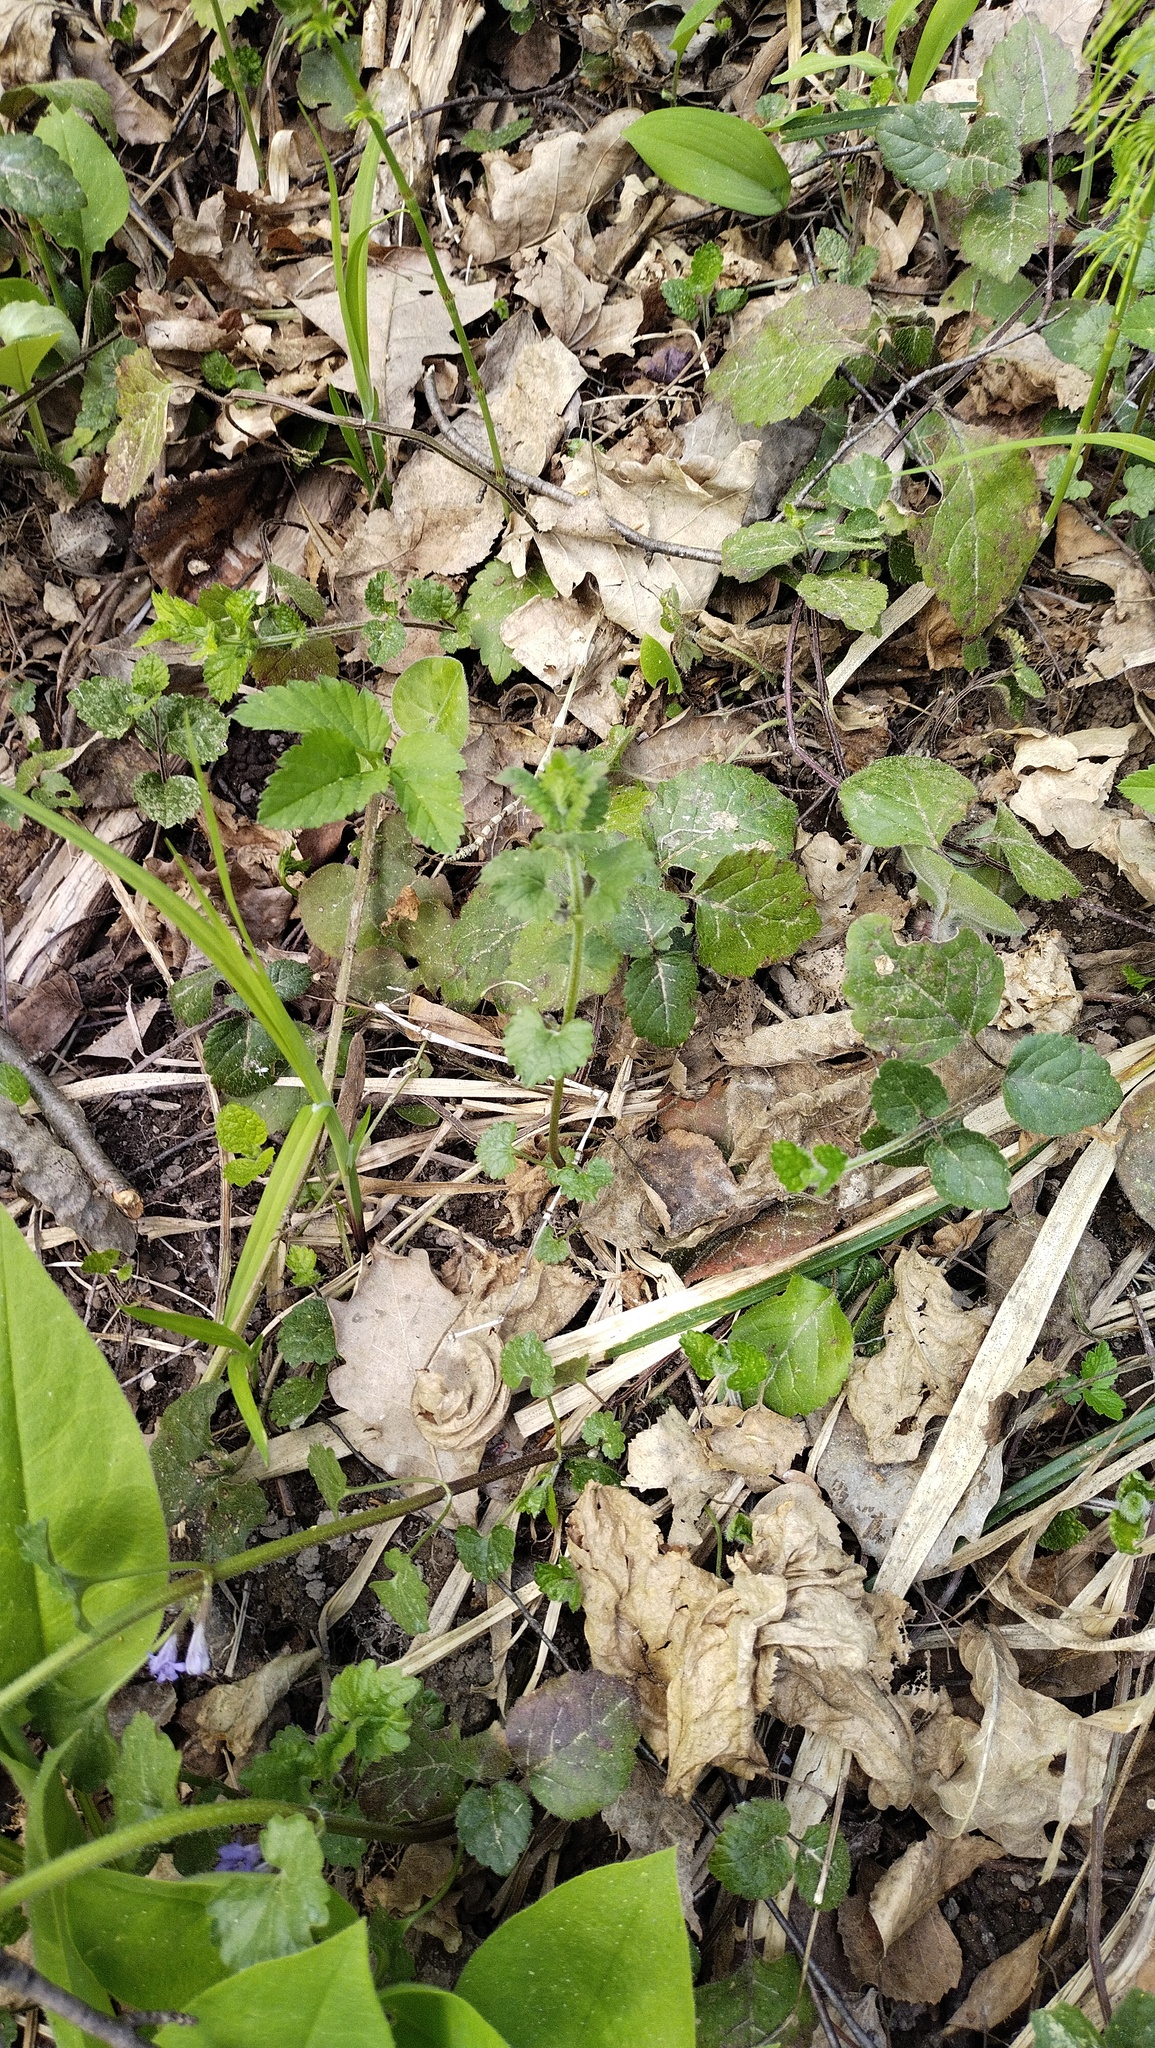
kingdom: Plantae
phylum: Tracheophyta
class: Magnoliopsida
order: Piperales
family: Aristolochiaceae
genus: Asarum
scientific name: Asarum europaeum
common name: Asarabacca
